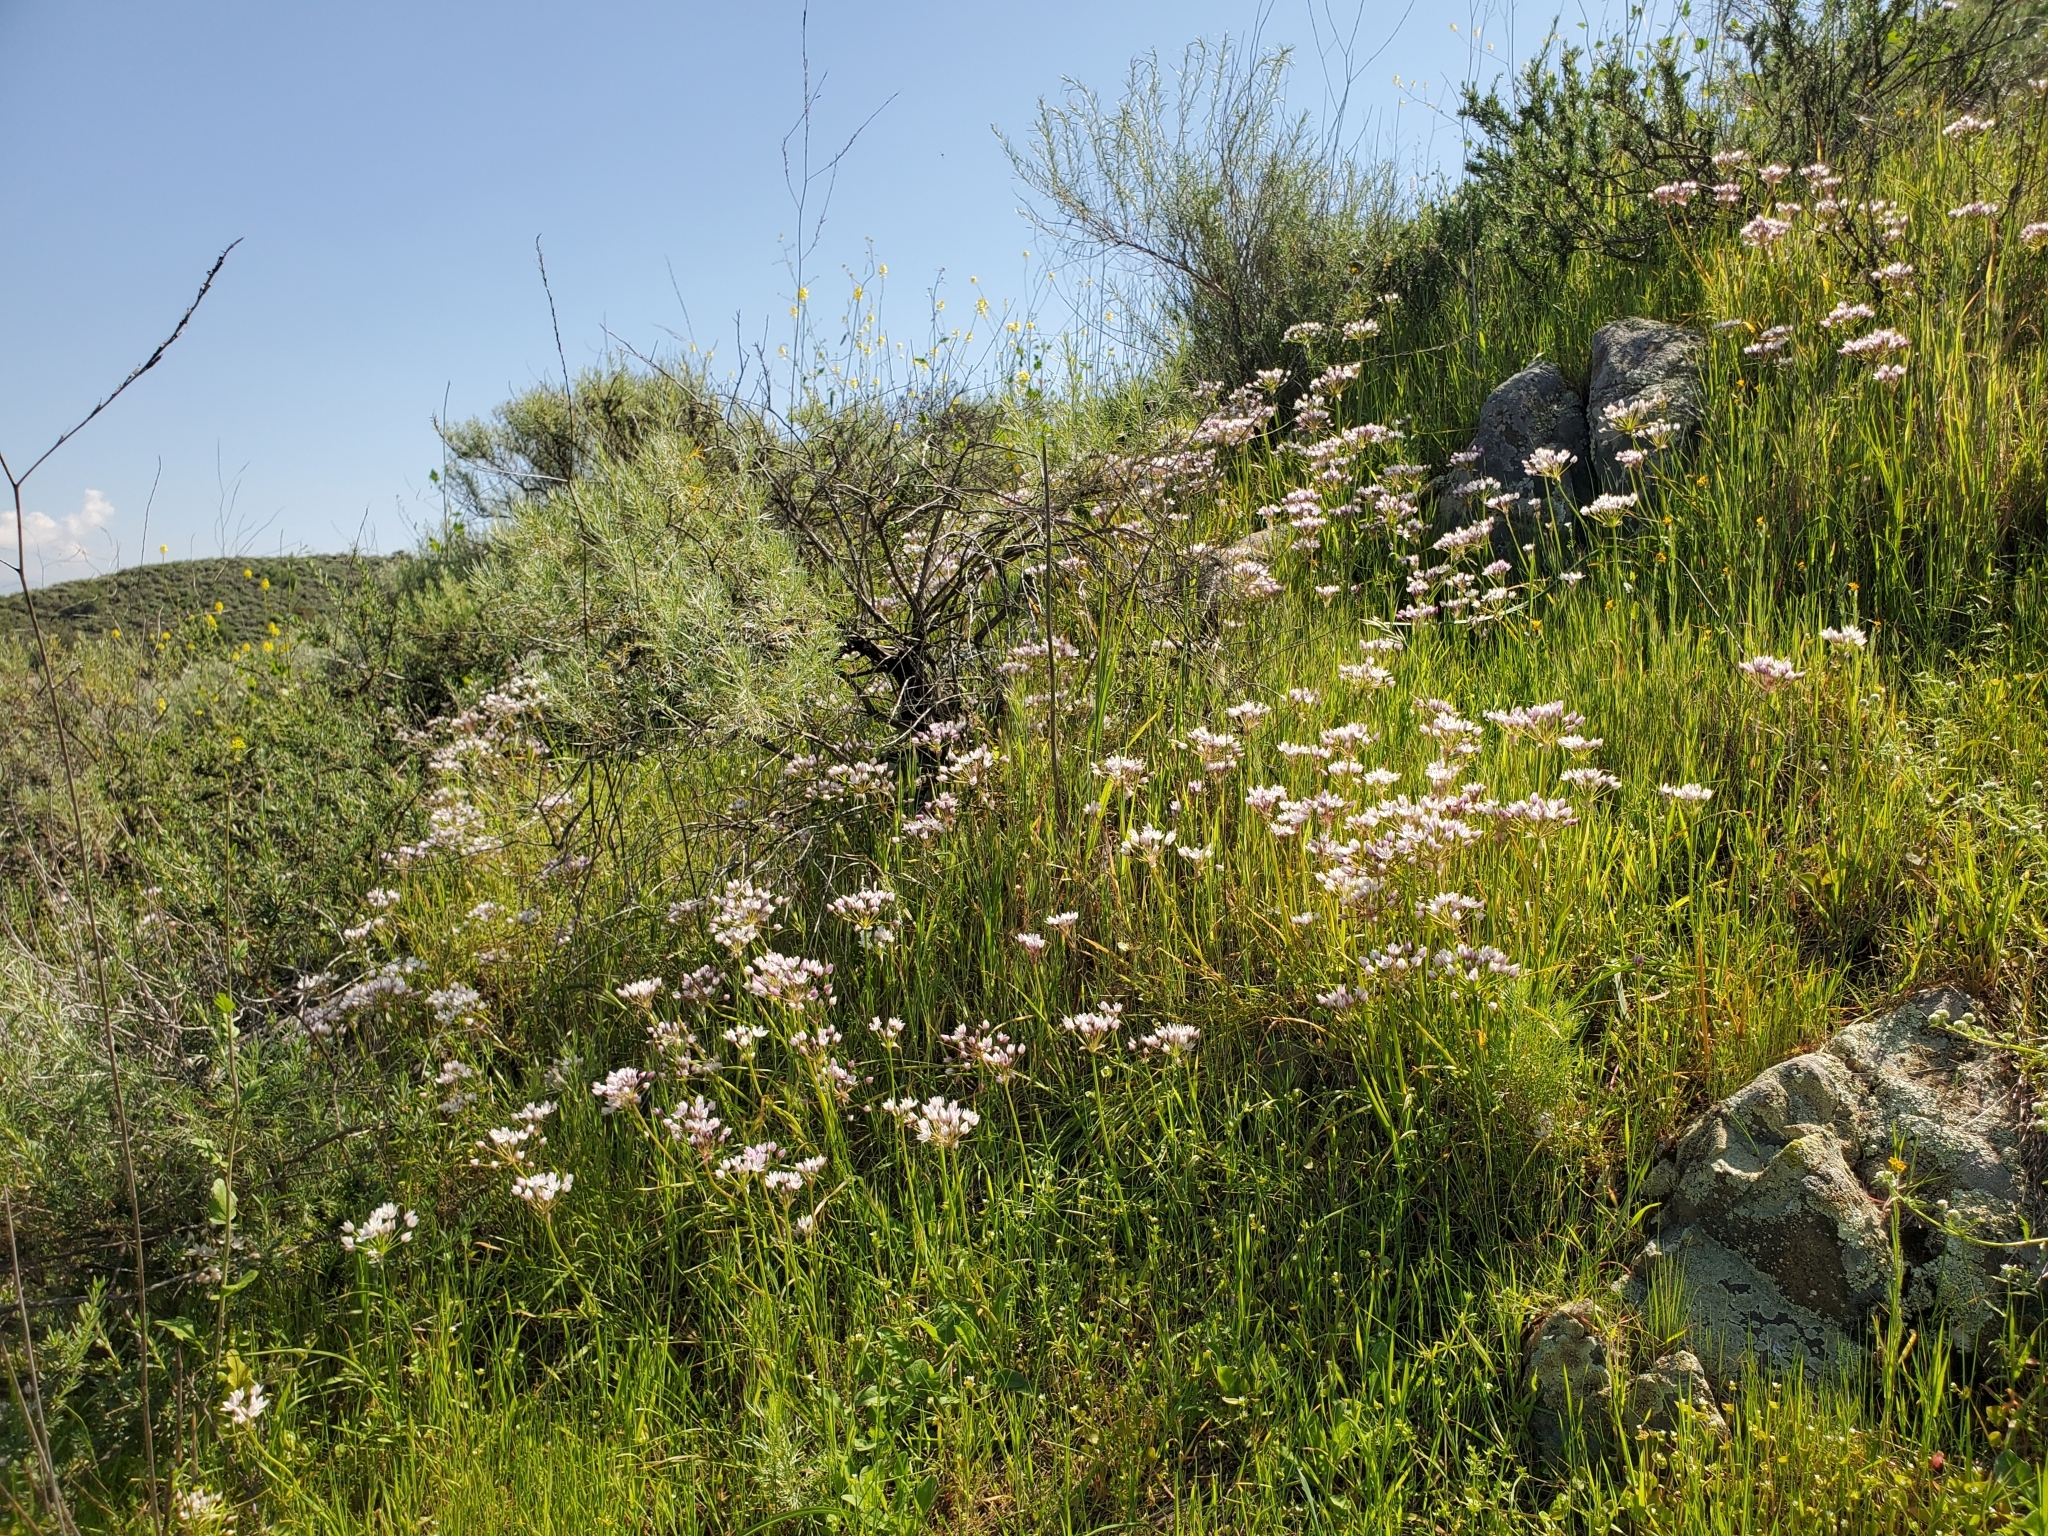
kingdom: Plantae
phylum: Tracheophyta
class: Liliopsida
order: Asparagales
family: Amaryllidaceae
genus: Allium
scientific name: Allium praecox
